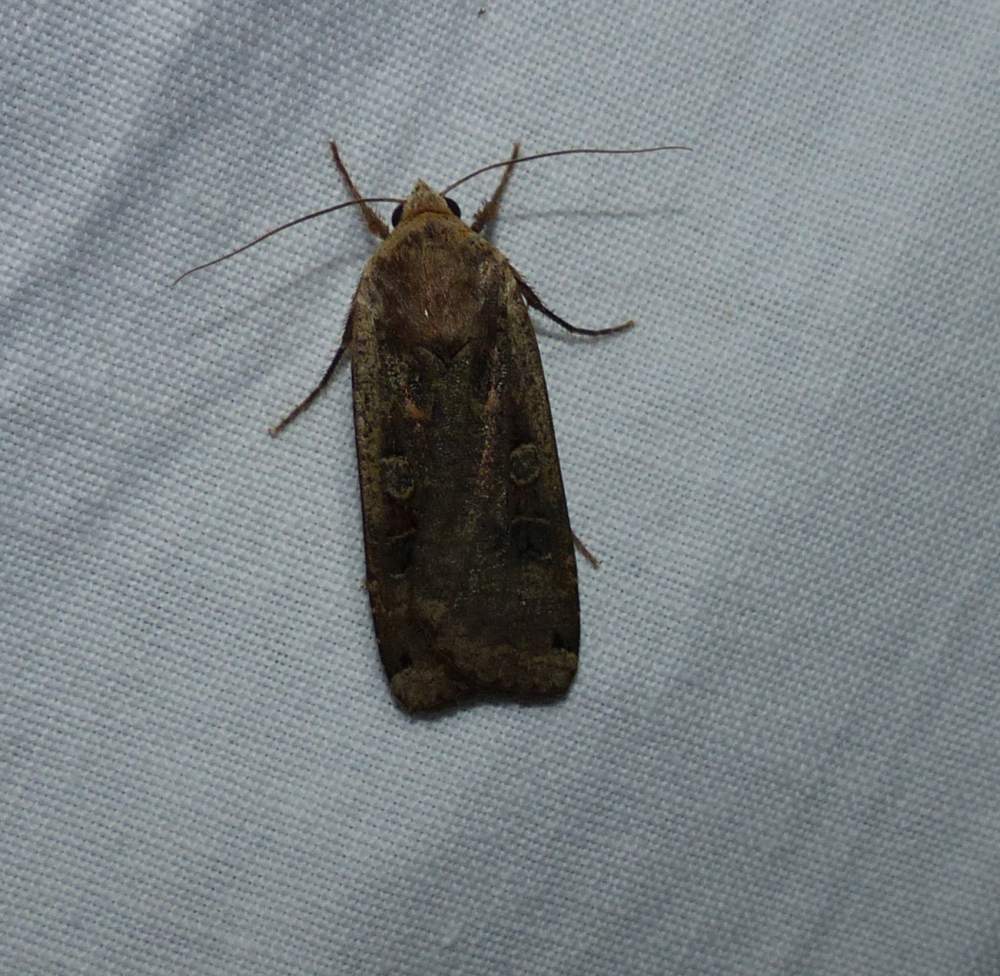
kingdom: Animalia
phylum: Arthropoda
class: Insecta
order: Lepidoptera
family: Noctuidae
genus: Noctua
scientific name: Noctua pronuba
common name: Large yellow underwing
